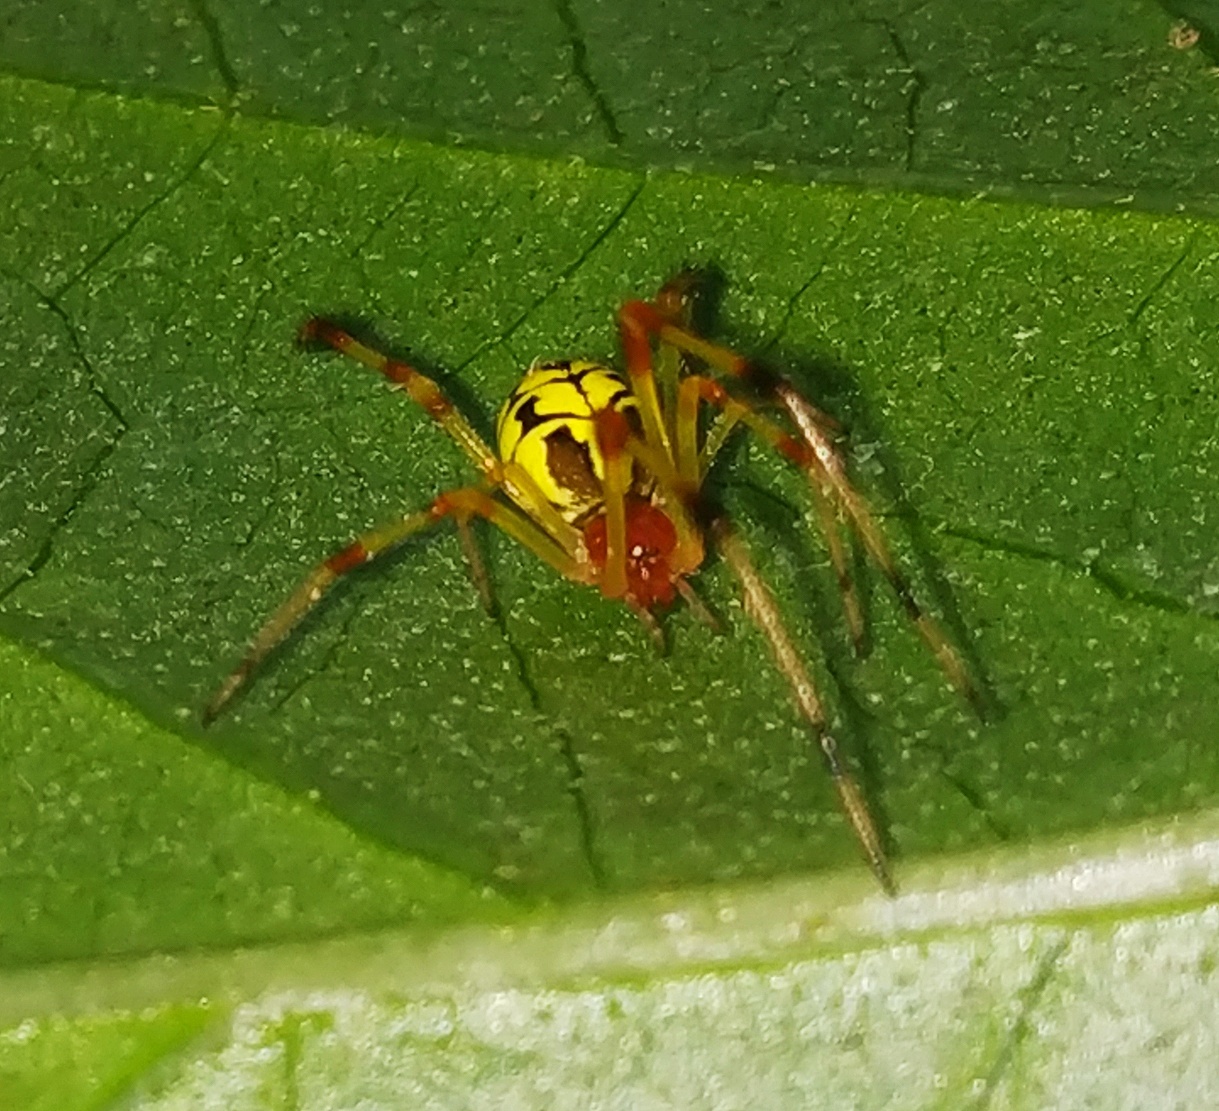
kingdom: Animalia
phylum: Arthropoda
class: Arachnida
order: Araneae
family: Theridiidae
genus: Chrysso
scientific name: Chrysso urbasae
